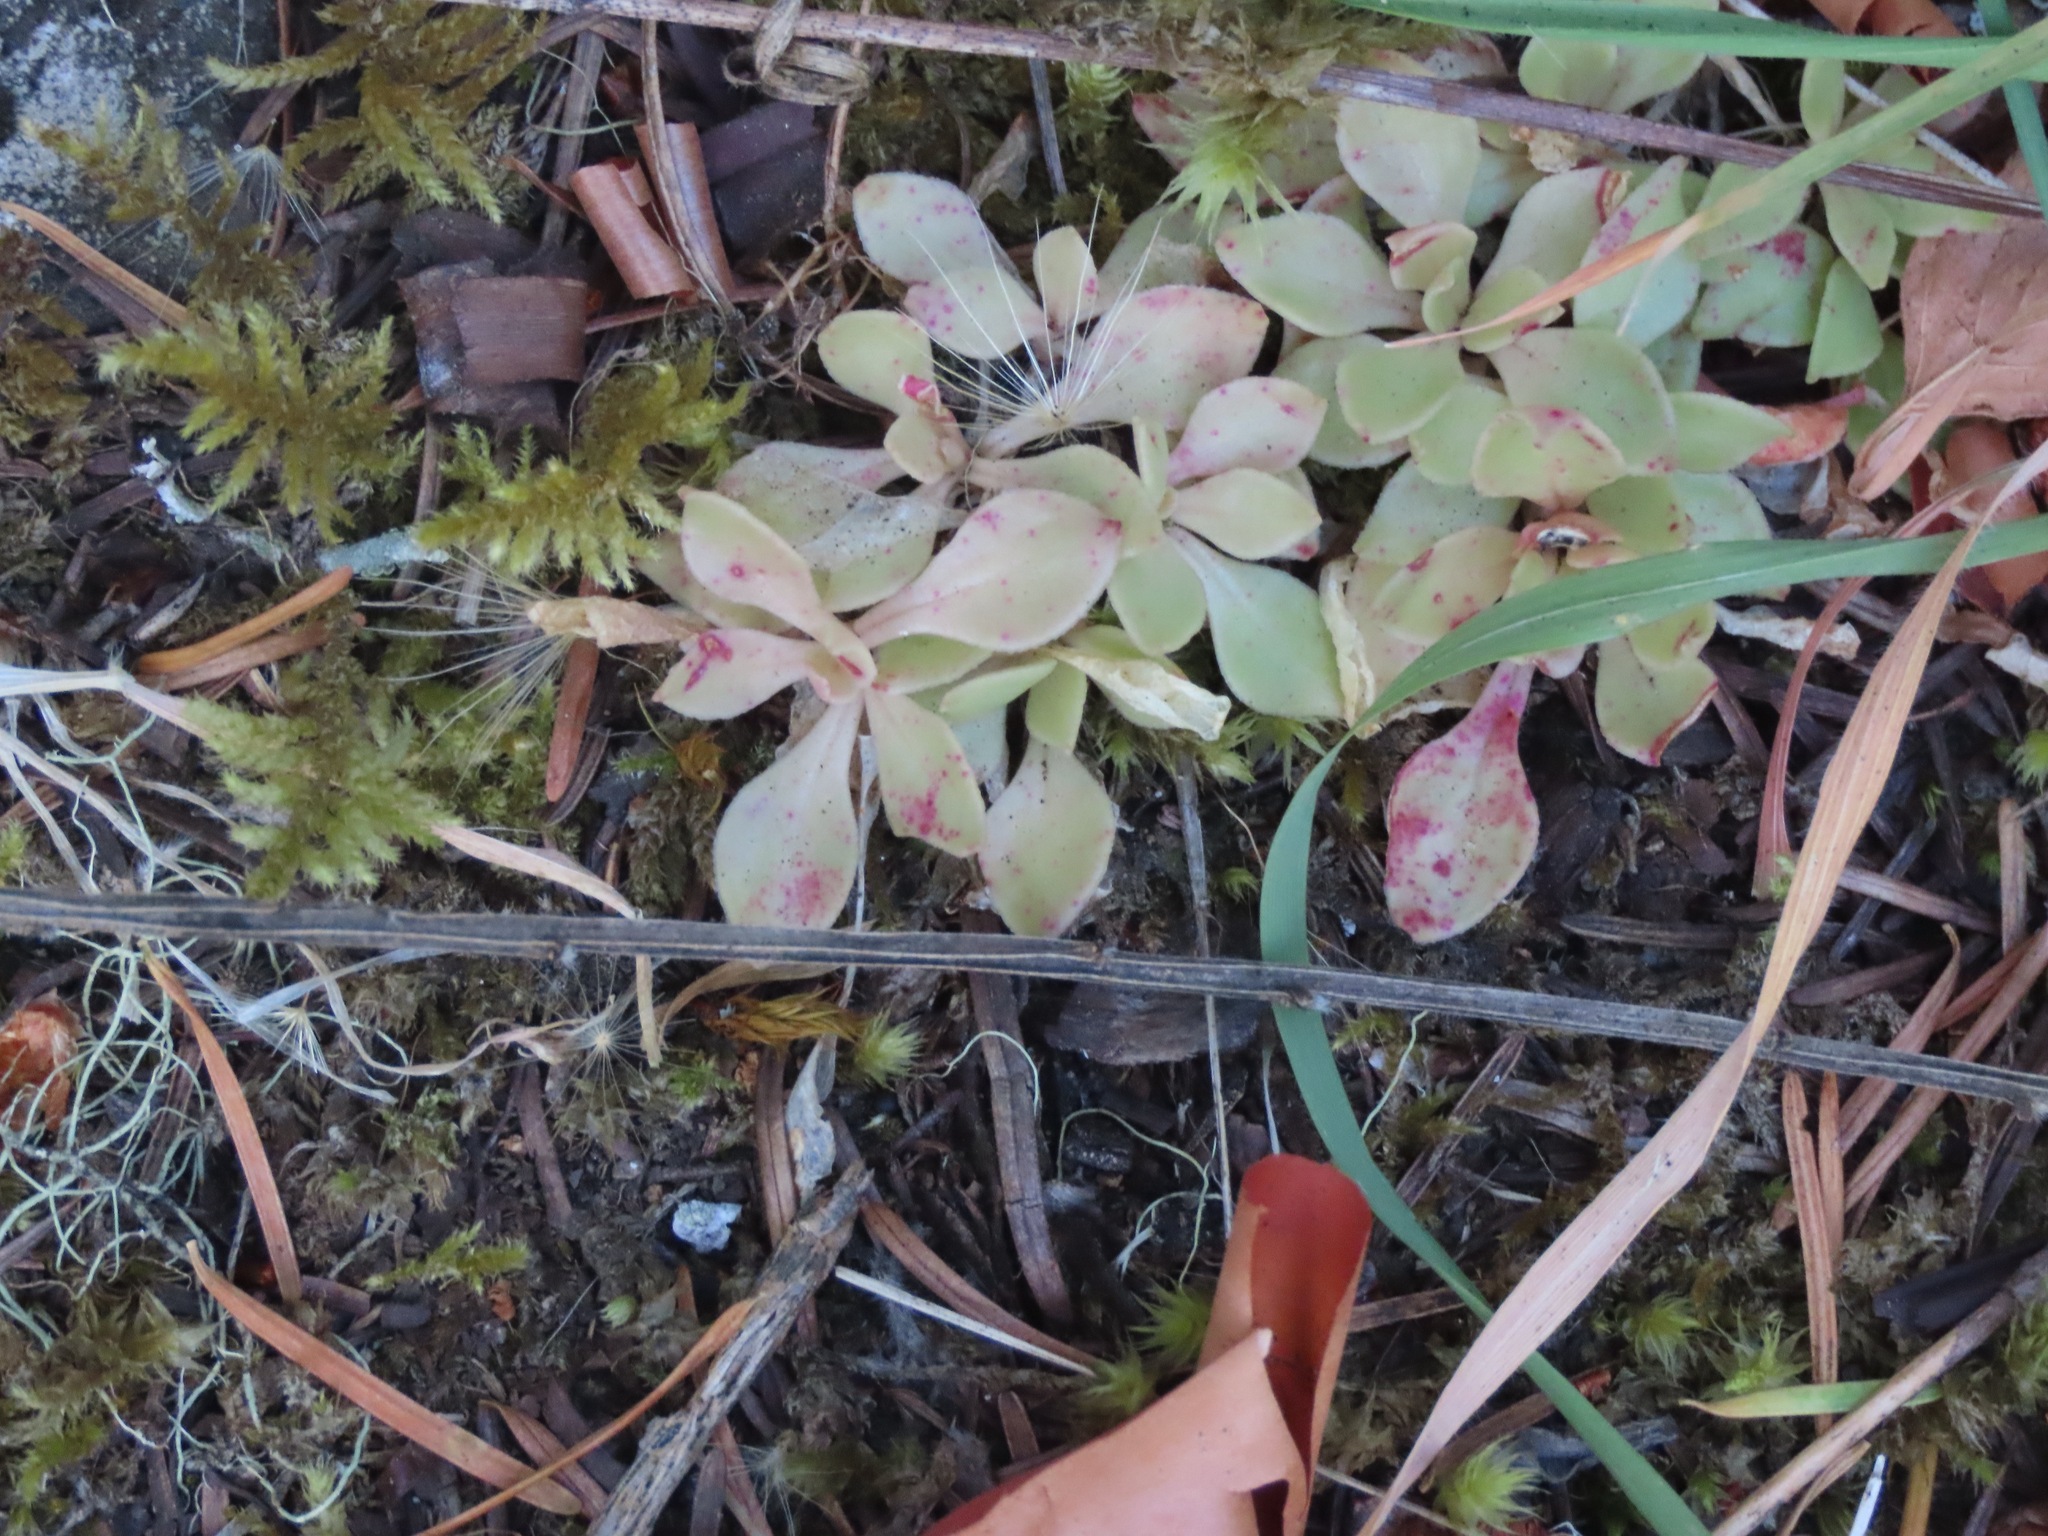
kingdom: Plantae
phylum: Tracheophyta
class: Magnoliopsida
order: Caryophyllales
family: Montiaceae
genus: Montia
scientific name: Montia parvifolia
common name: Small-leaved blinks
